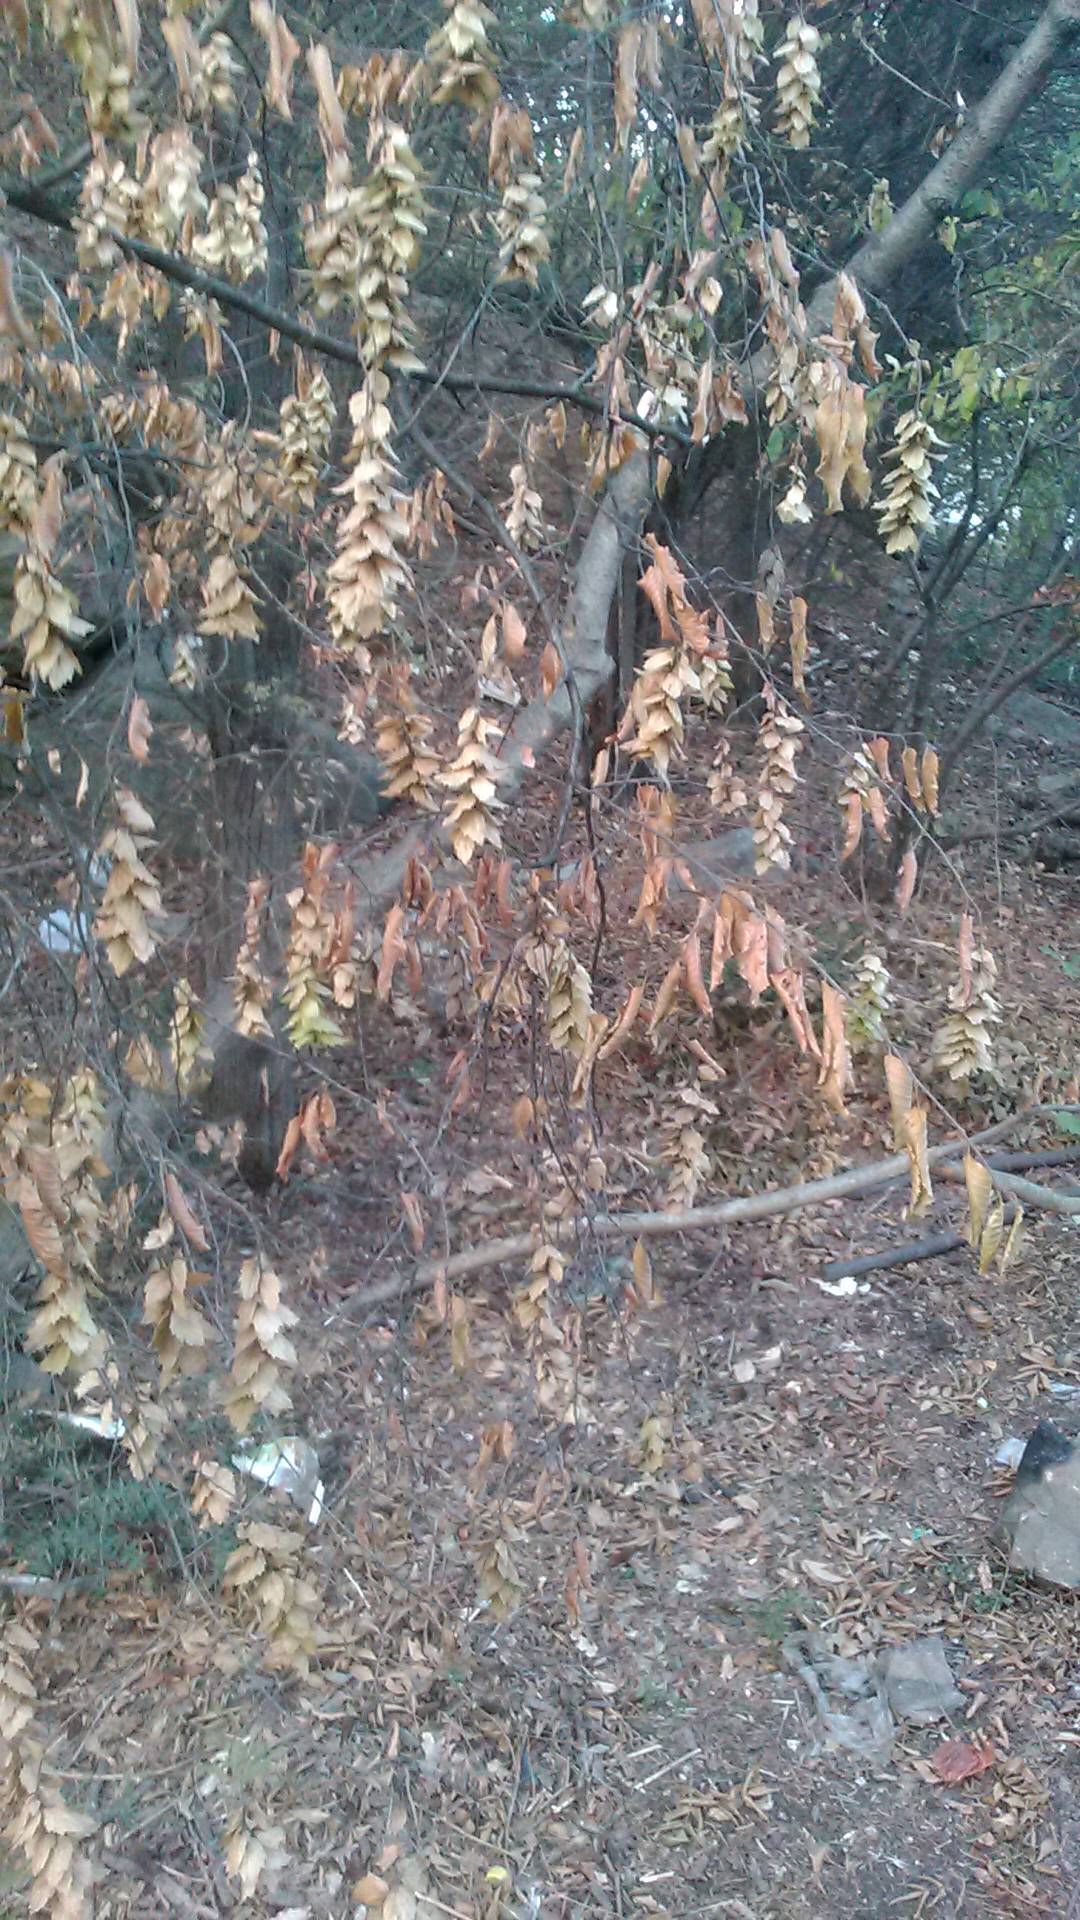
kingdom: Plantae
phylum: Tracheophyta
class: Magnoliopsida
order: Fagales
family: Betulaceae
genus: Carpinus
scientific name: Carpinus orientalis
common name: Eastern hornbeam
